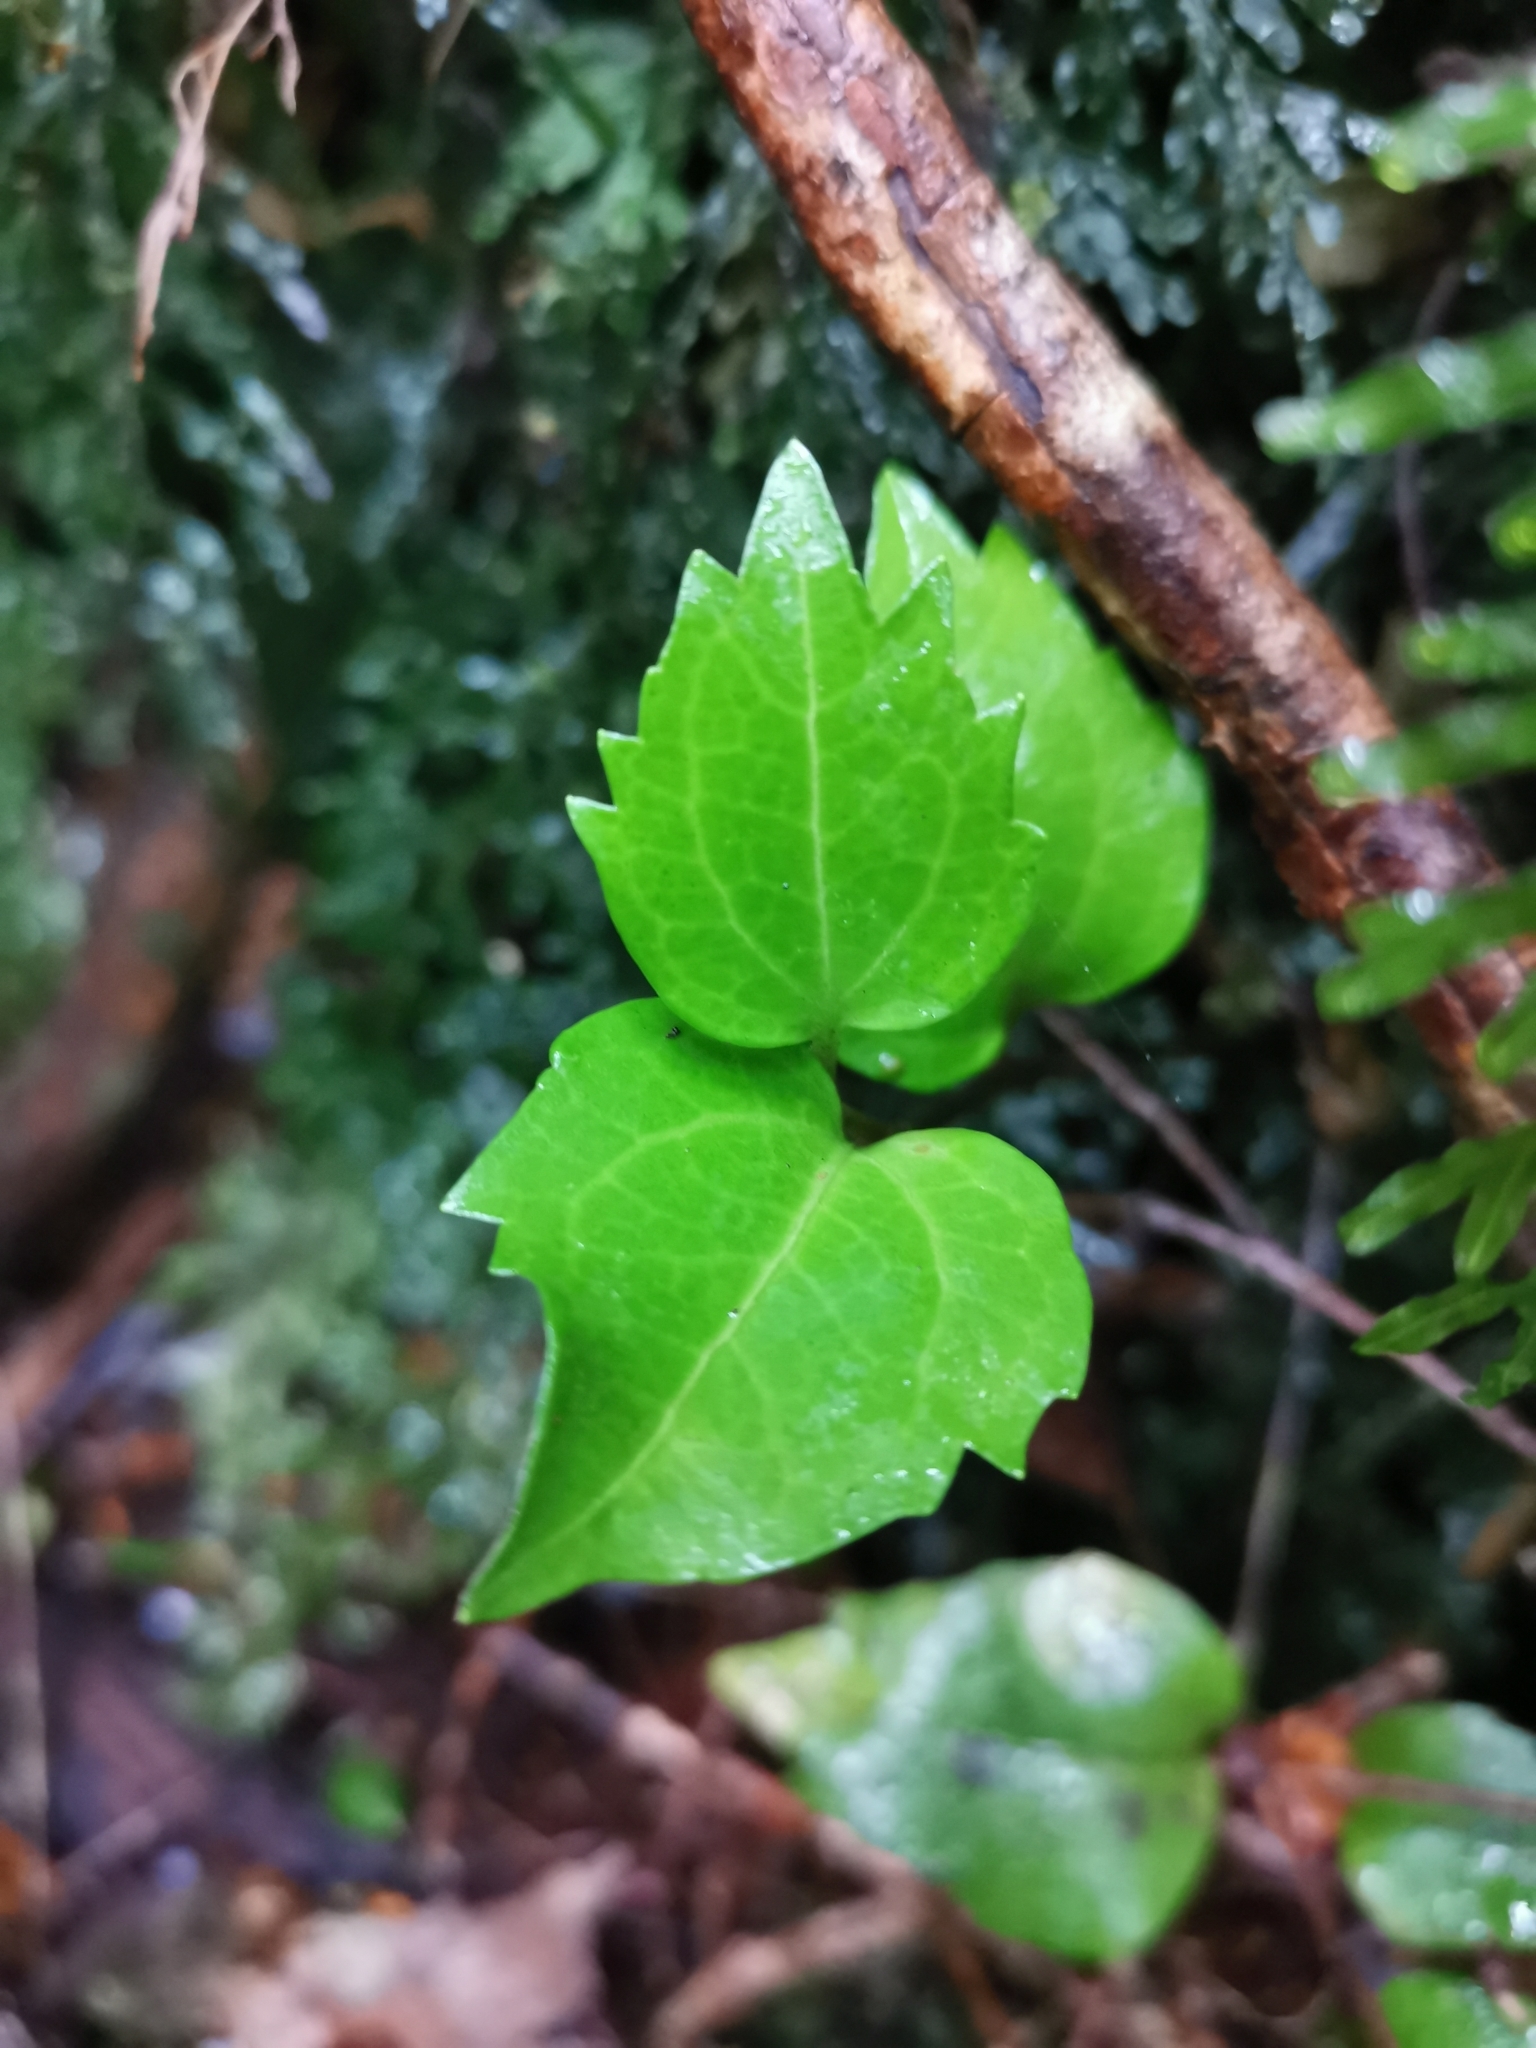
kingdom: Plantae
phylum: Tracheophyta
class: Magnoliopsida
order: Apiales
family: Griseliniaceae
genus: Griselinia
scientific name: Griselinia racemosa
